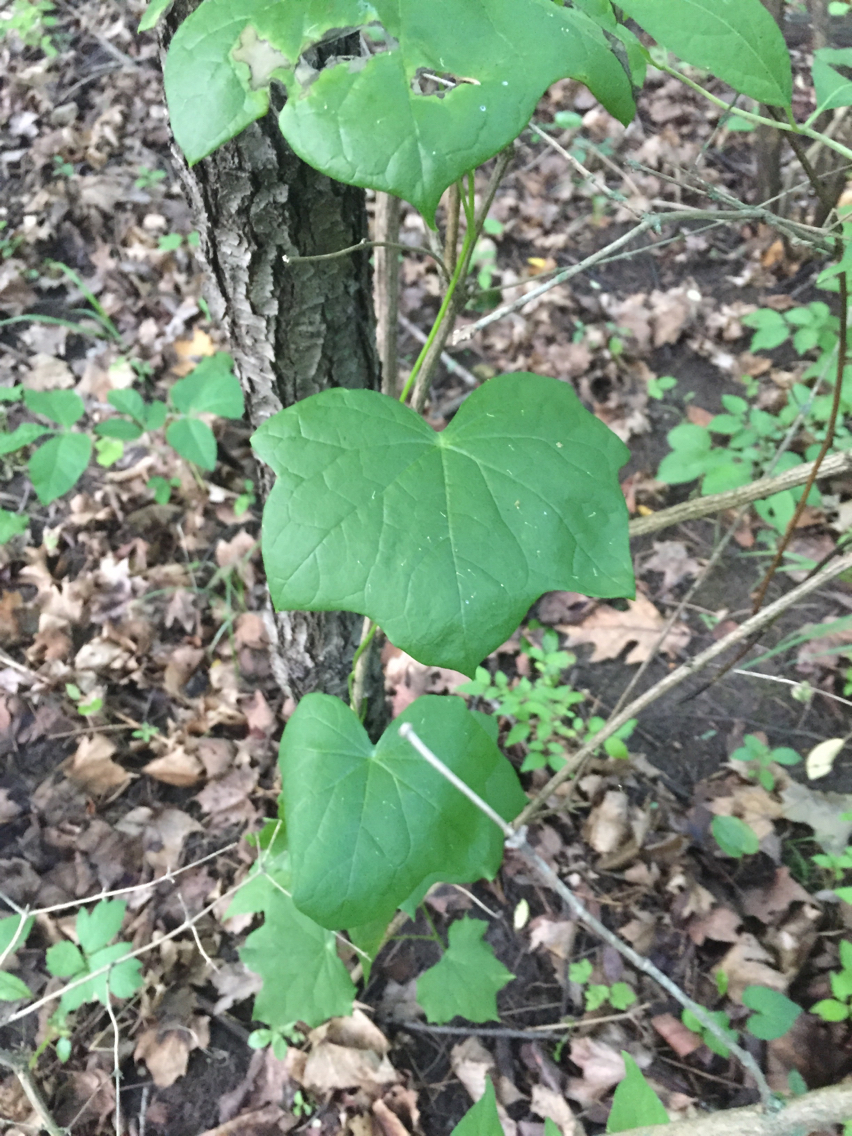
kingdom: Plantae
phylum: Tracheophyta
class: Magnoliopsida
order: Ranunculales
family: Menispermaceae
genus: Menispermum
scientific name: Menispermum canadense
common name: Moonseed
